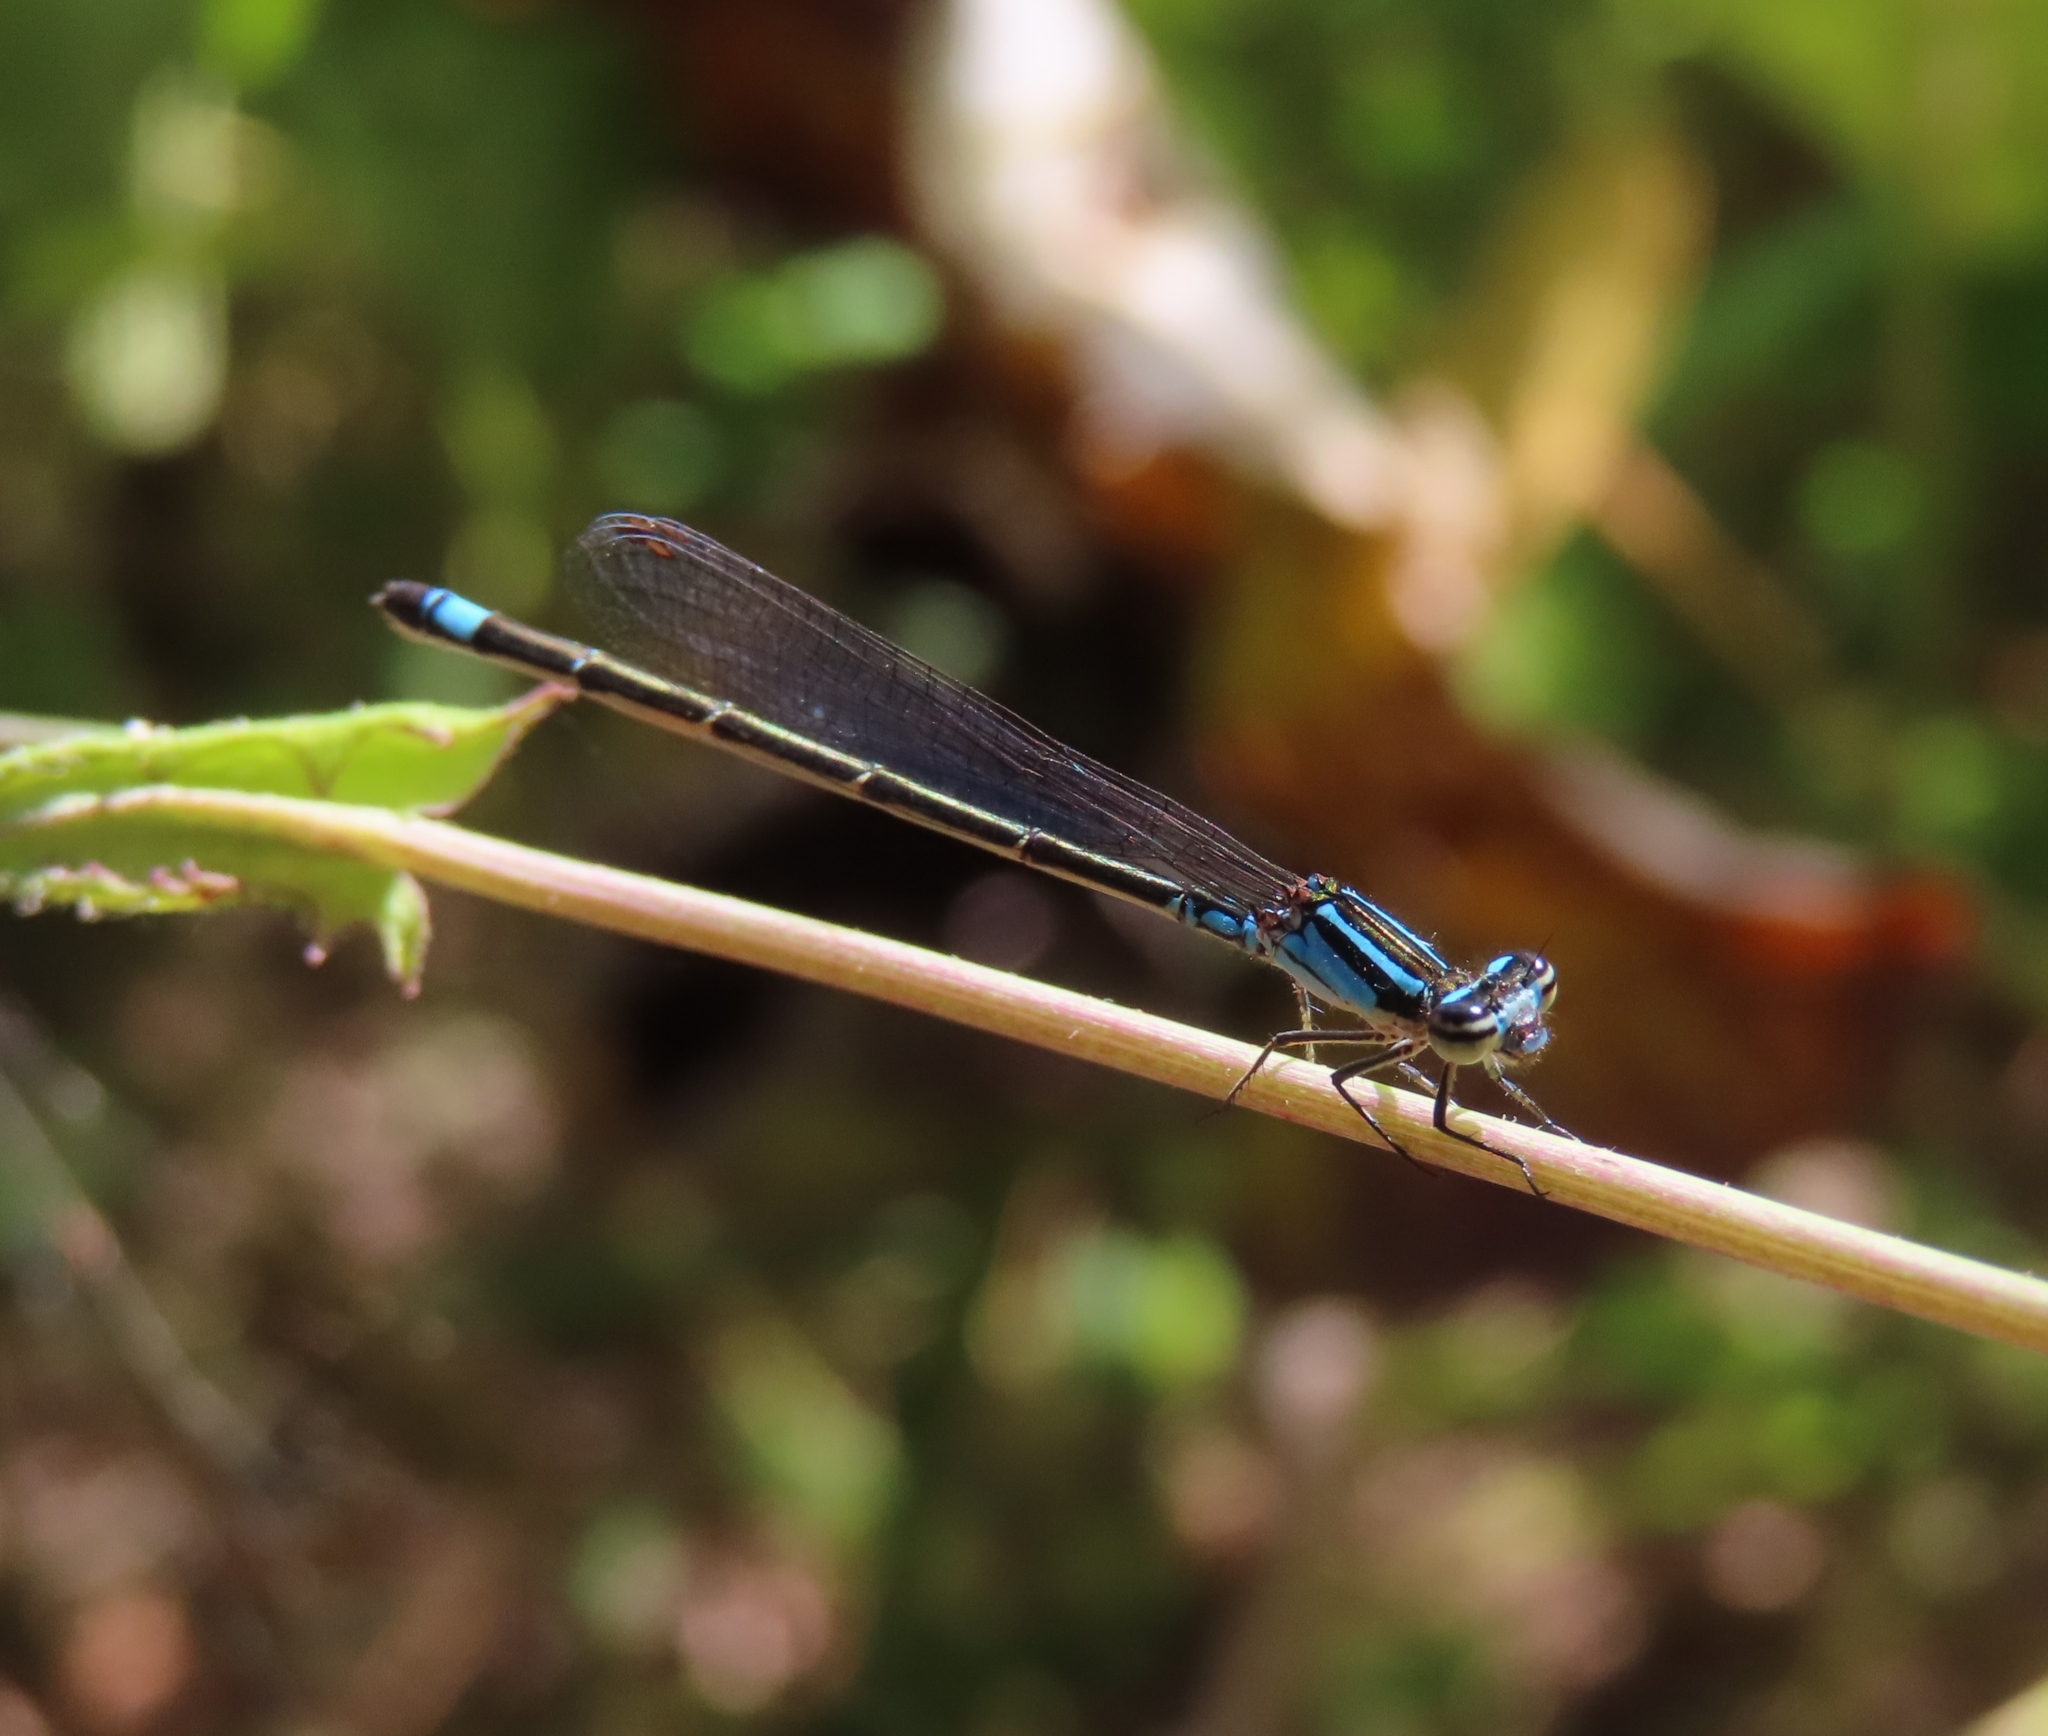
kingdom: Animalia
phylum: Arthropoda
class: Insecta
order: Odonata
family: Coenagrionidae
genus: Enallagma
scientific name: Enallagma coecum
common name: Antillean bluet
